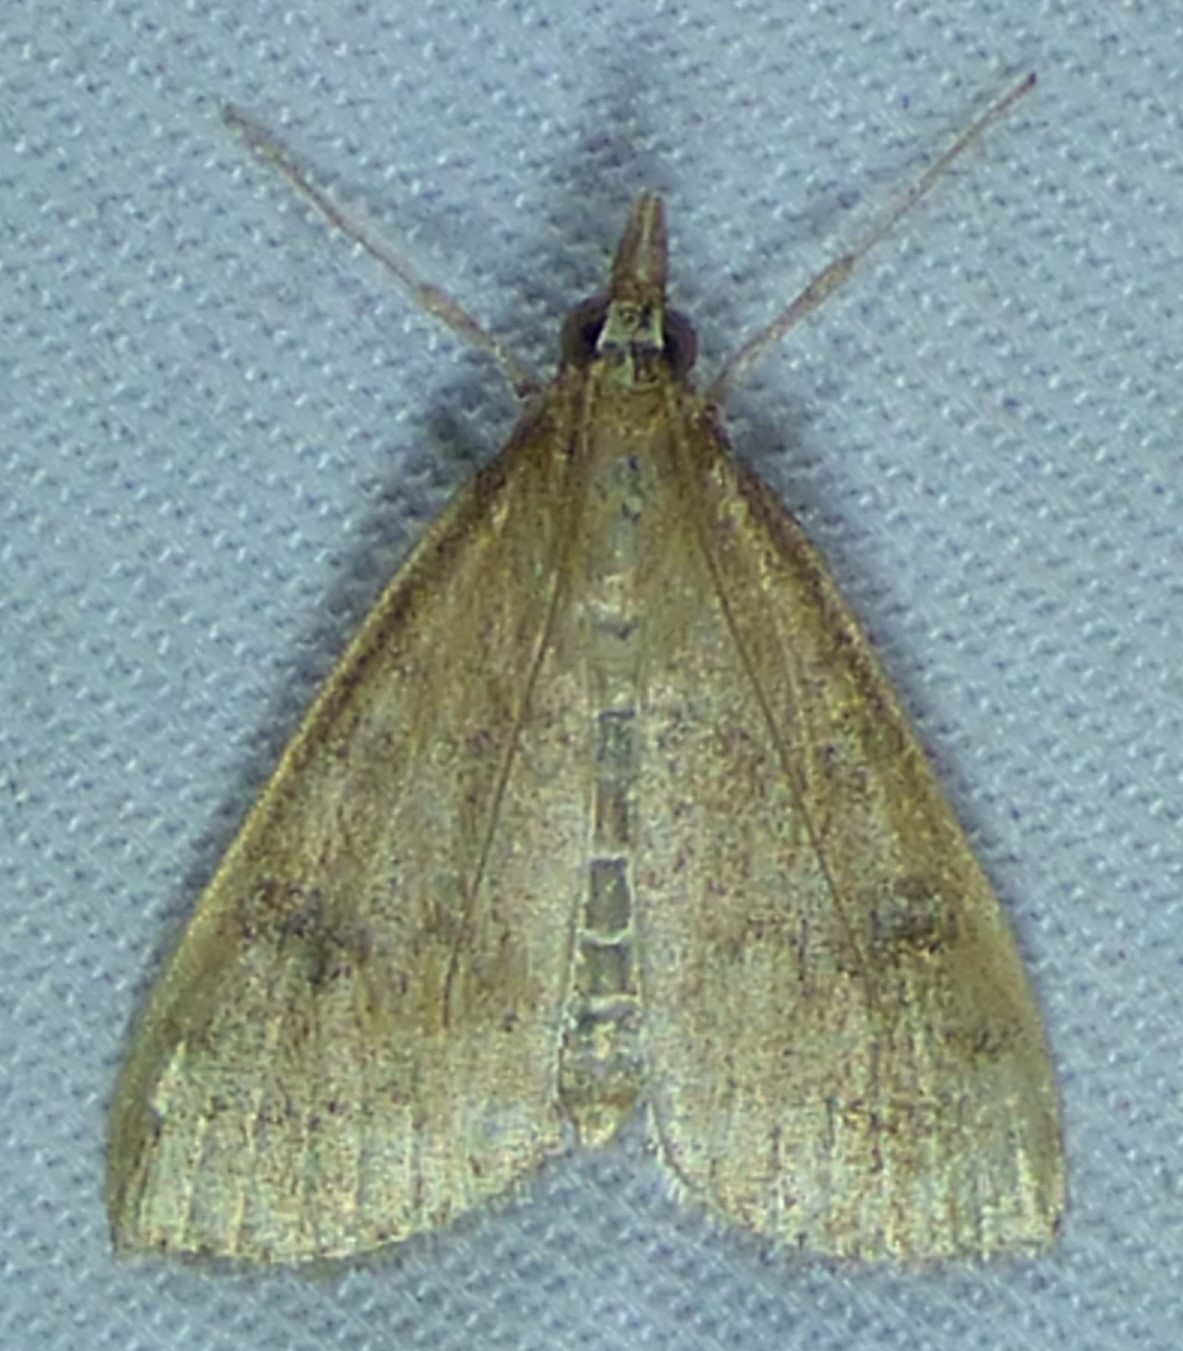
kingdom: Animalia
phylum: Arthropoda
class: Insecta
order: Lepidoptera
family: Crambidae
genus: Udea
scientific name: Udea rubigalis
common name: Celery leaftier moth
